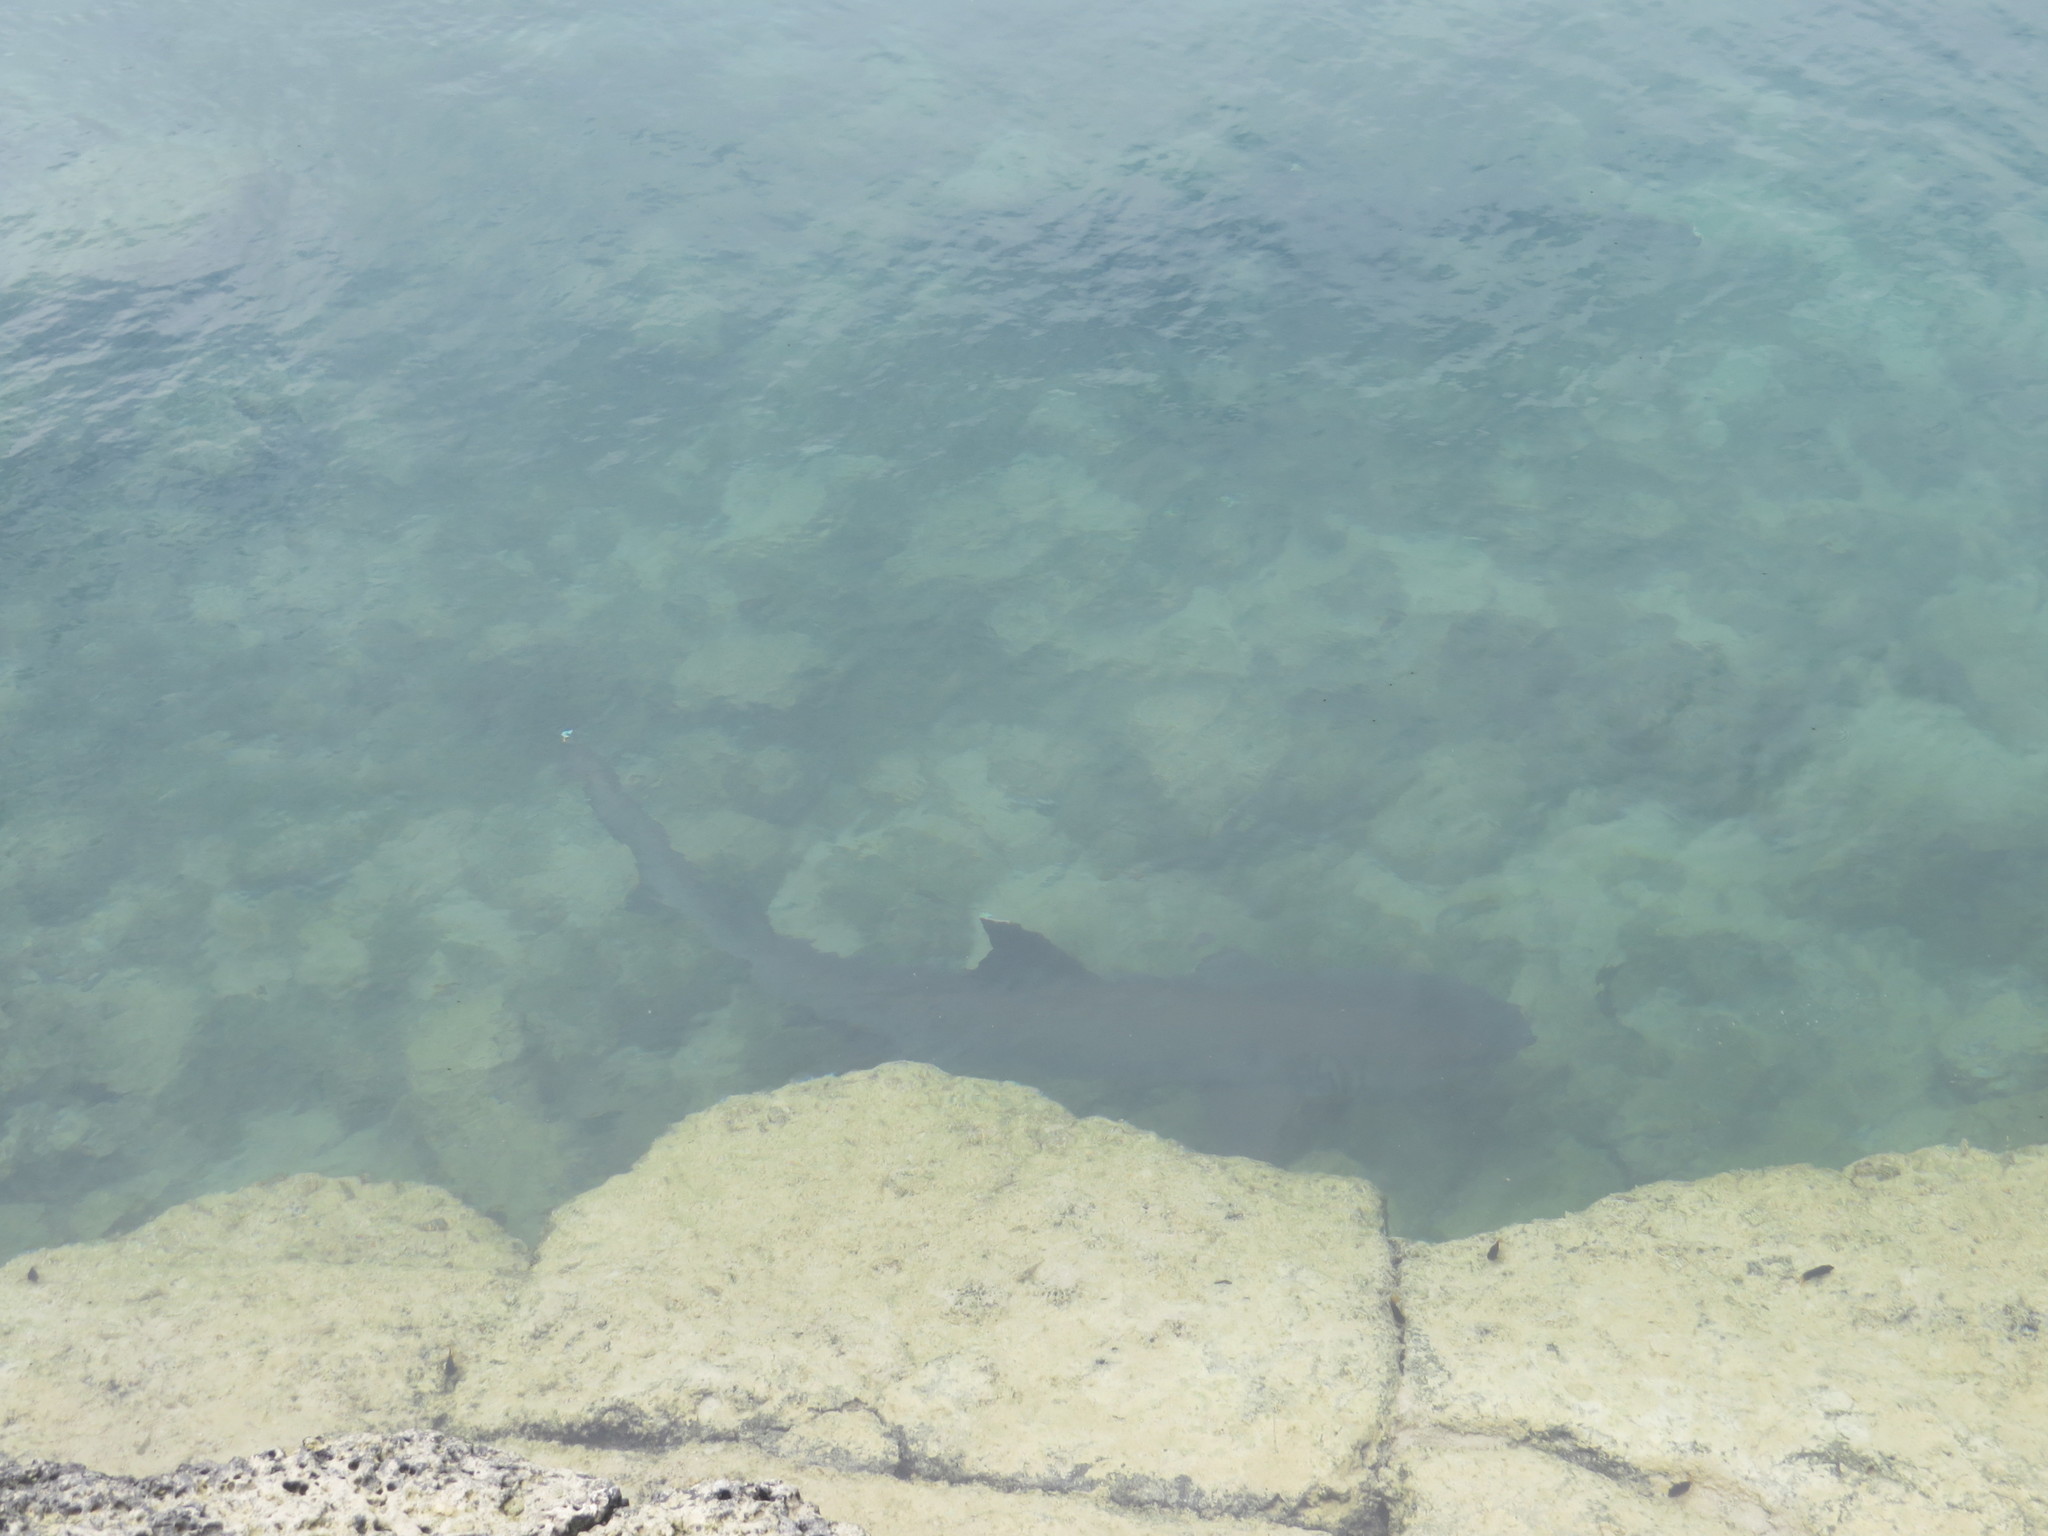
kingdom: Animalia
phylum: Chordata
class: Elasmobranchii
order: Carcharhiniformes
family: Carcharhinidae
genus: Triaenodon
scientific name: Triaenodon obesus
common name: Whitetip reef shark
